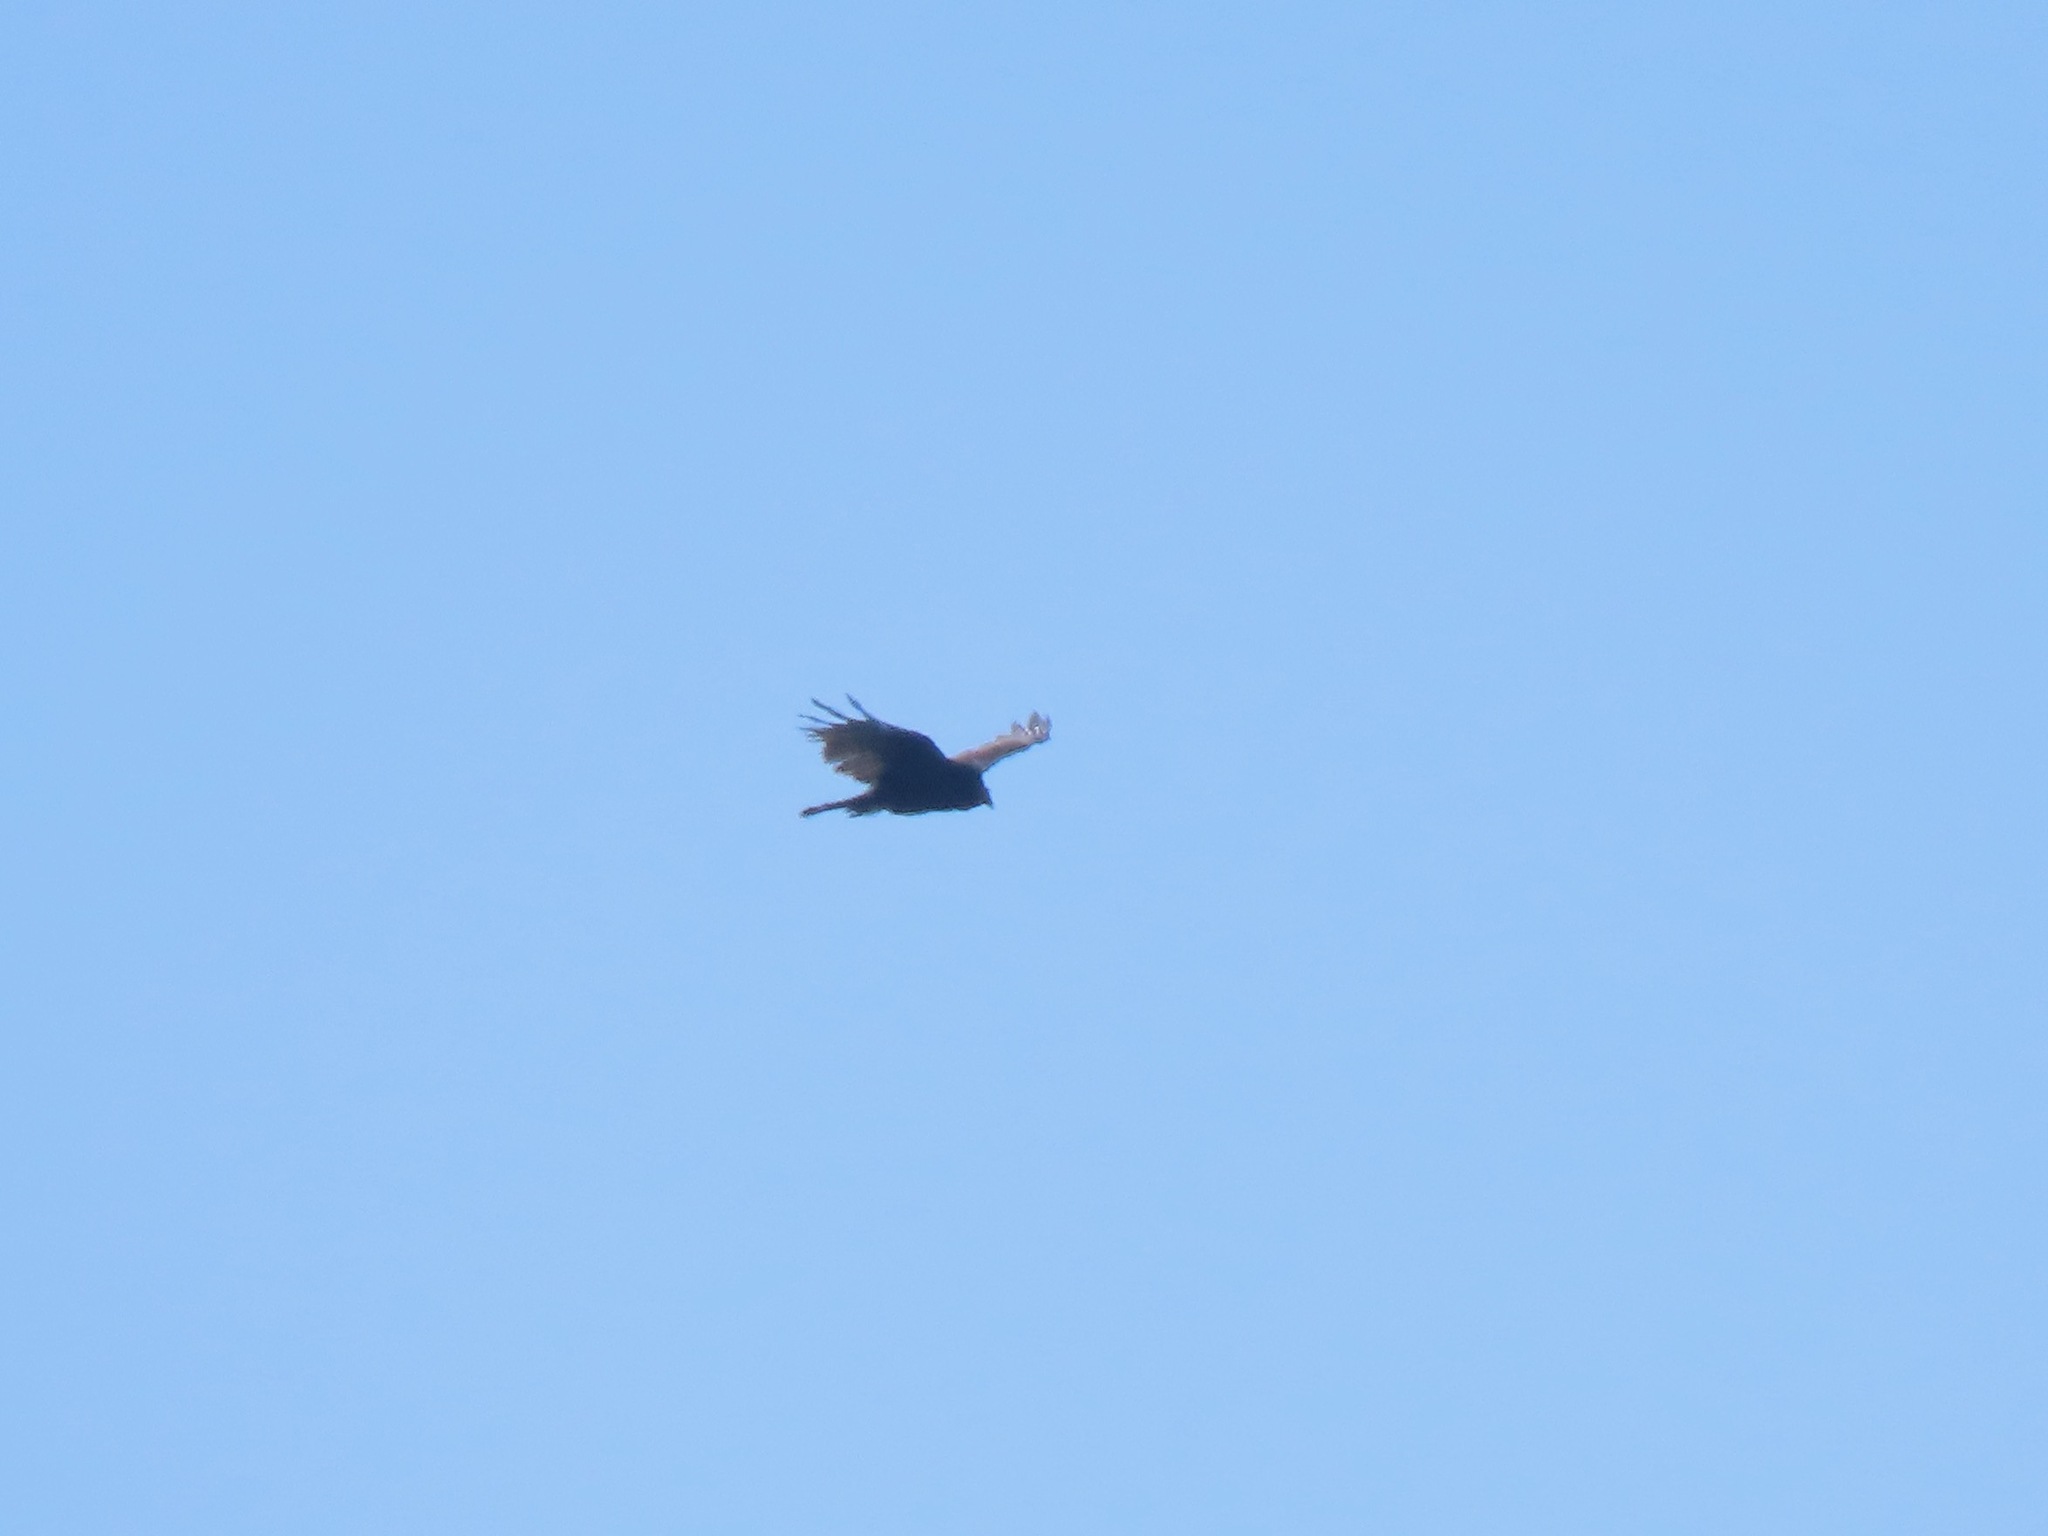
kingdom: Animalia
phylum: Chordata
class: Aves
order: Accipitriformes
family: Cathartidae
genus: Cathartes
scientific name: Cathartes aura
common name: Turkey vulture
